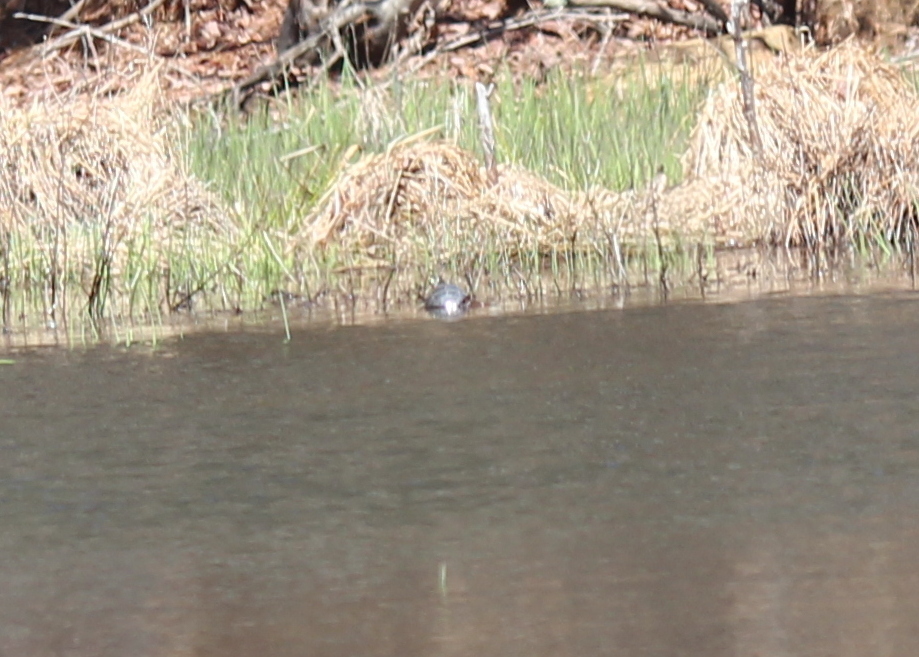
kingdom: Animalia
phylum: Chordata
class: Testudines
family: Emydidae
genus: Chrysemys
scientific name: Chrysemys picta
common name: Painted turtle
